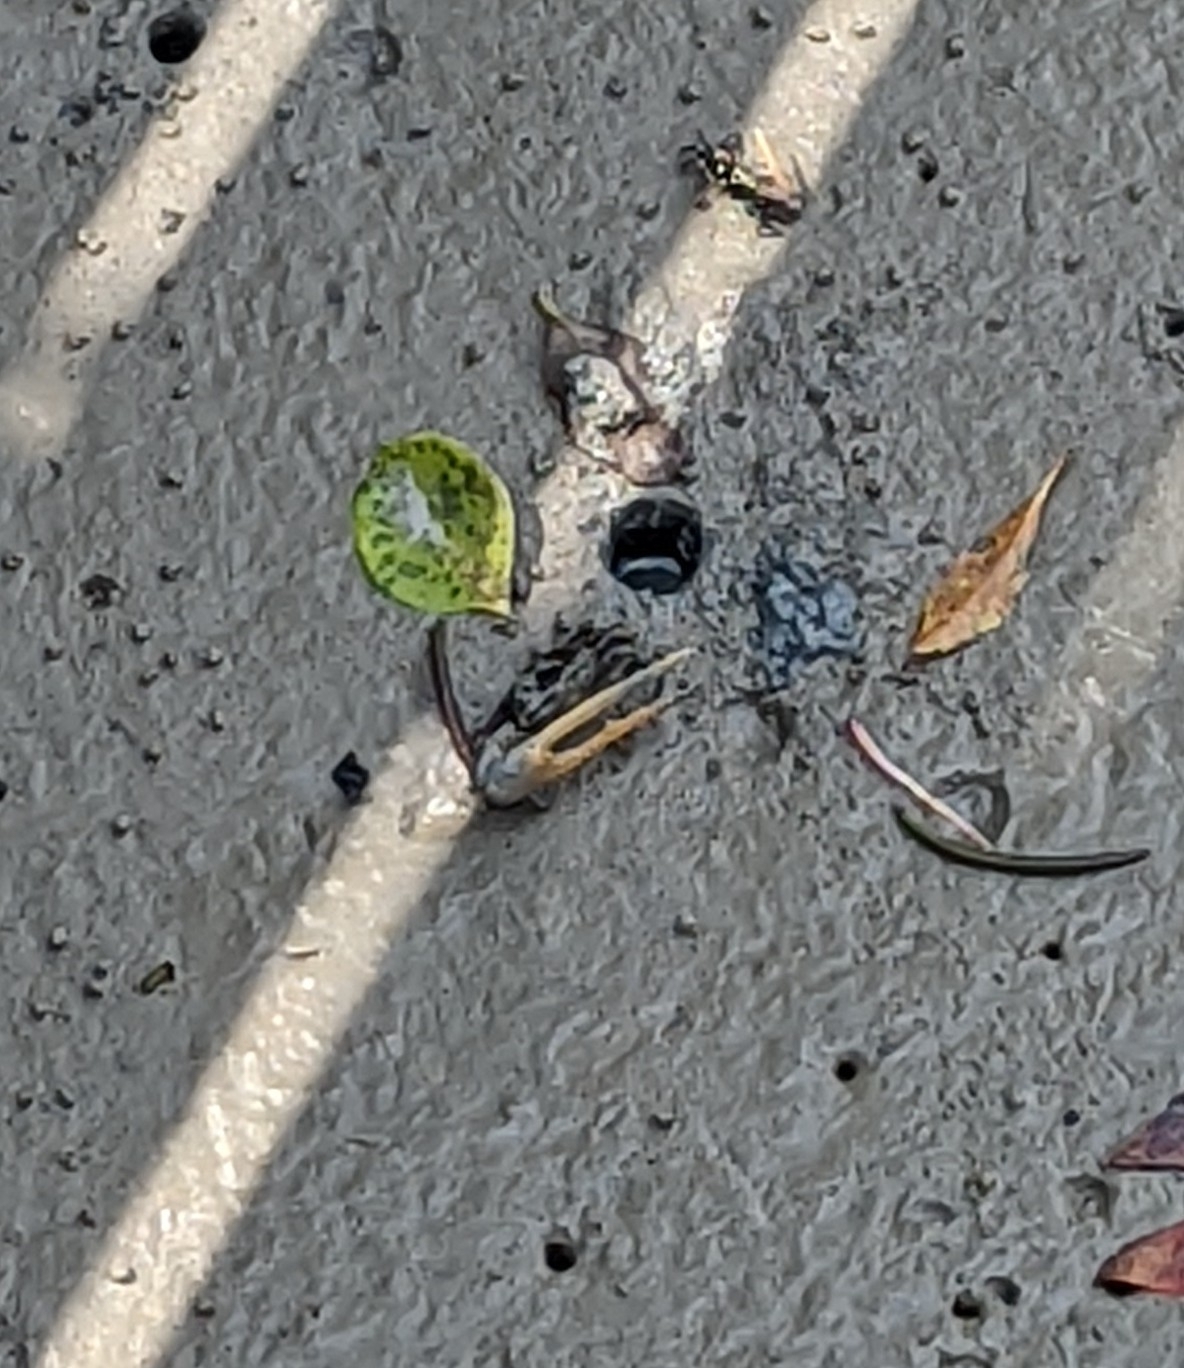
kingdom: Animalia
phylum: Arthropoda
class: Malacostraca
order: Decapoda
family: Ocypodidae
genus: Tubuca
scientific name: Tubuca paradussumieri
